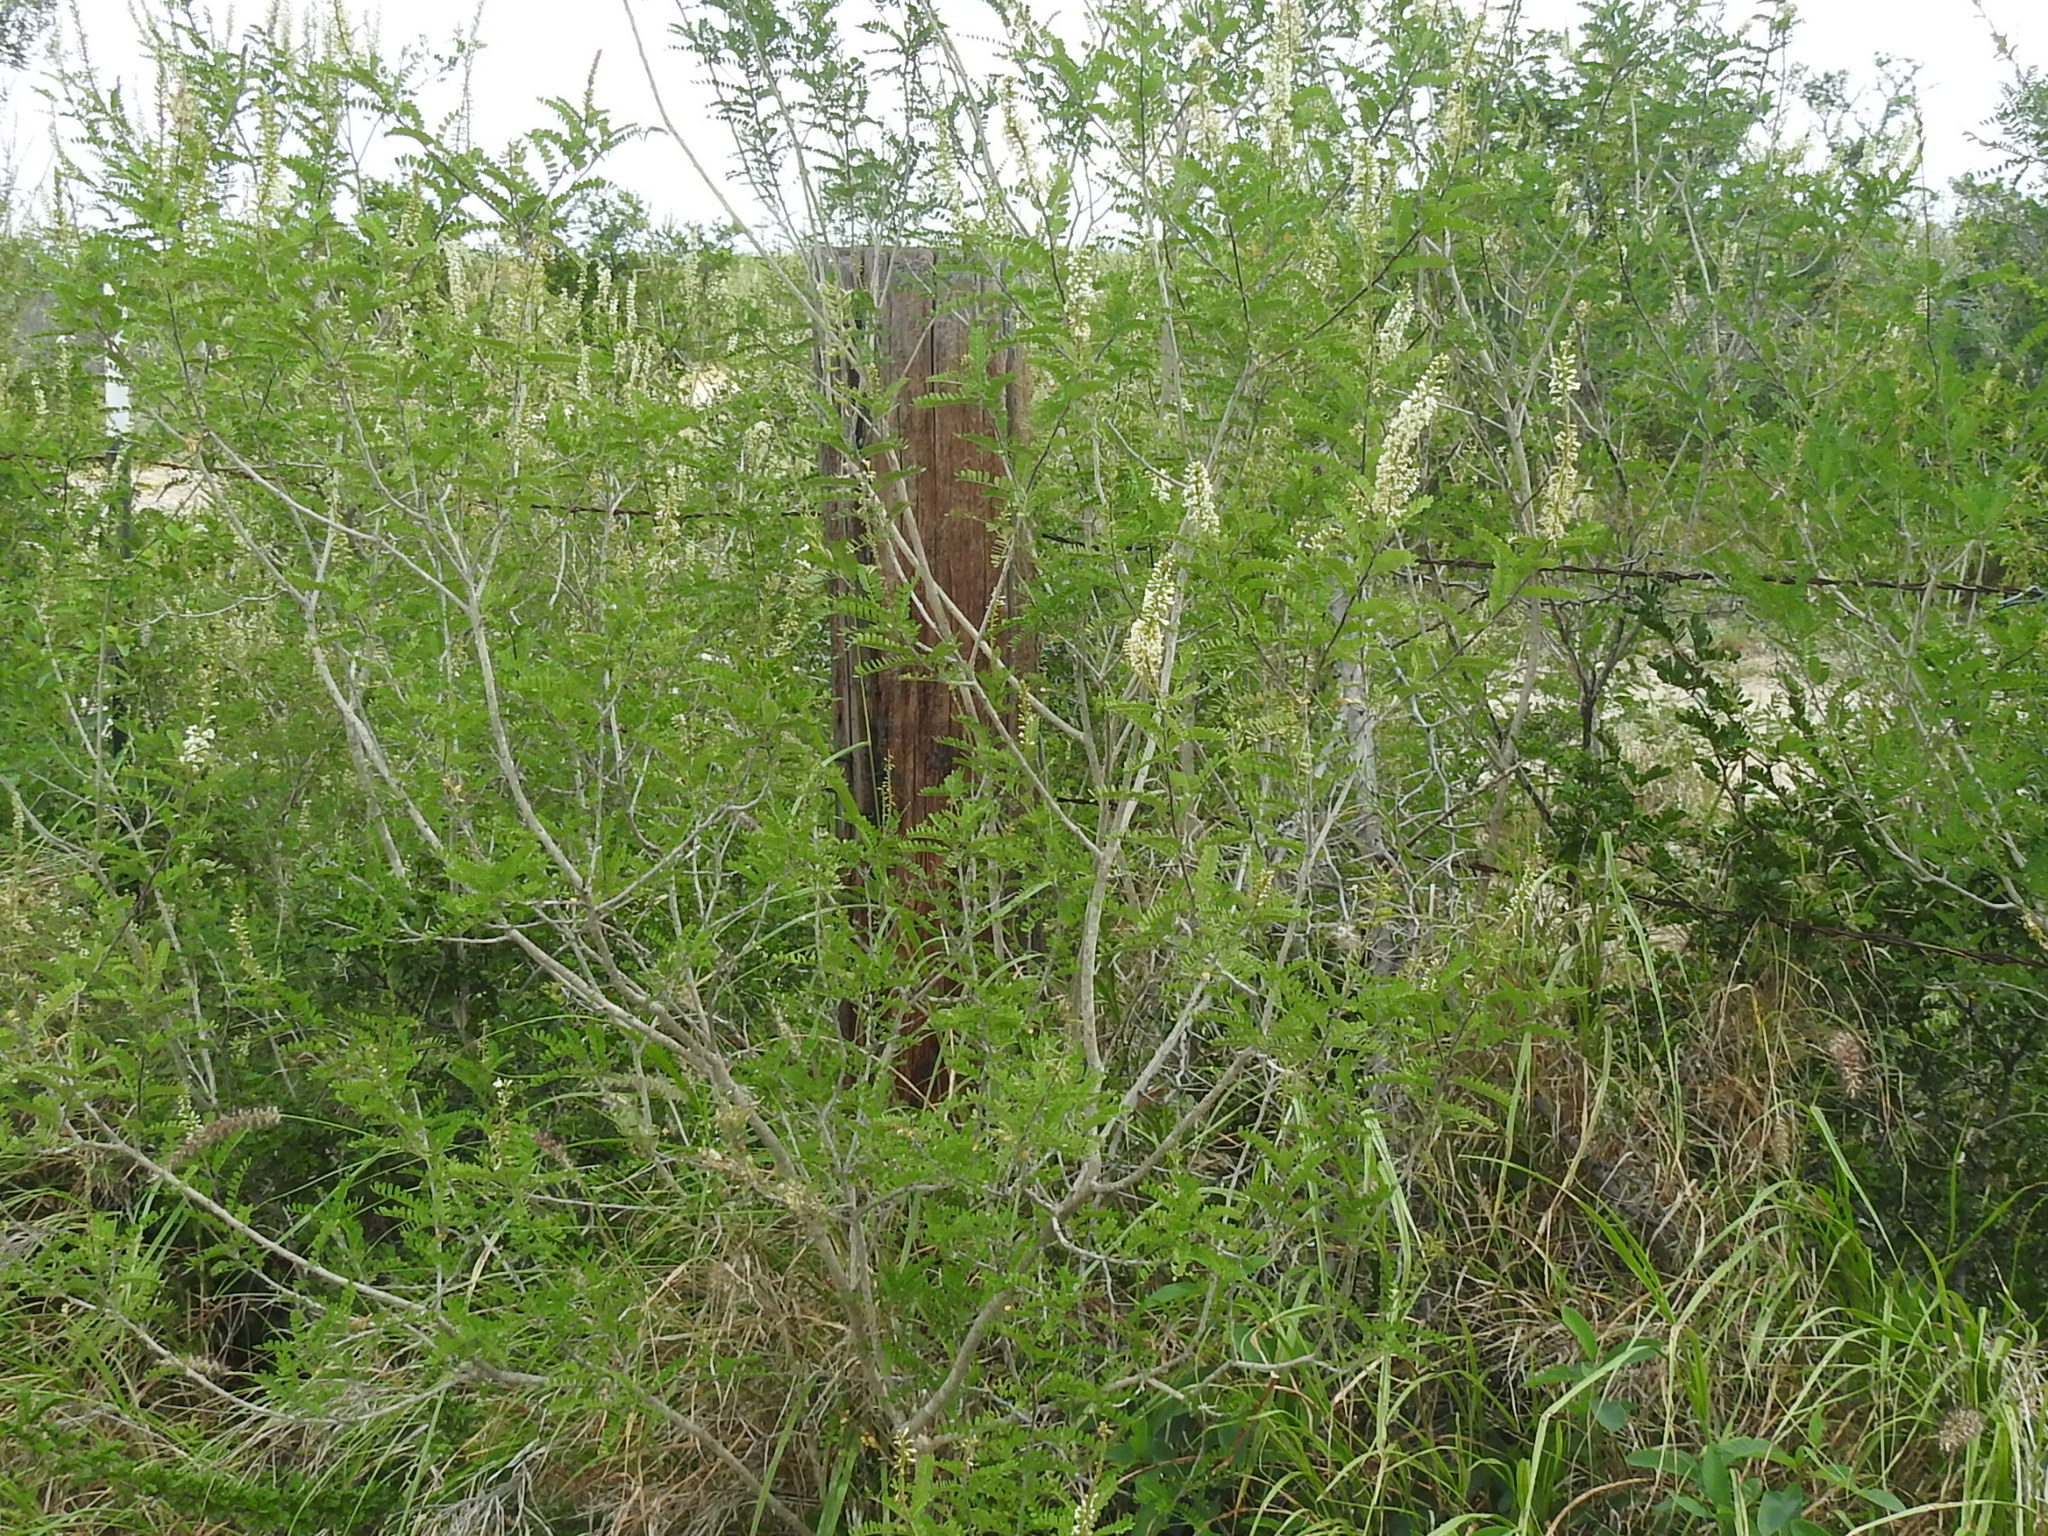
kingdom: Plantae
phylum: Tracheophyta
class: Magnoliopsida
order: Fabales
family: Fabaceae
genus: Eysenhardtia
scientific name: Eysenhardtia texana
